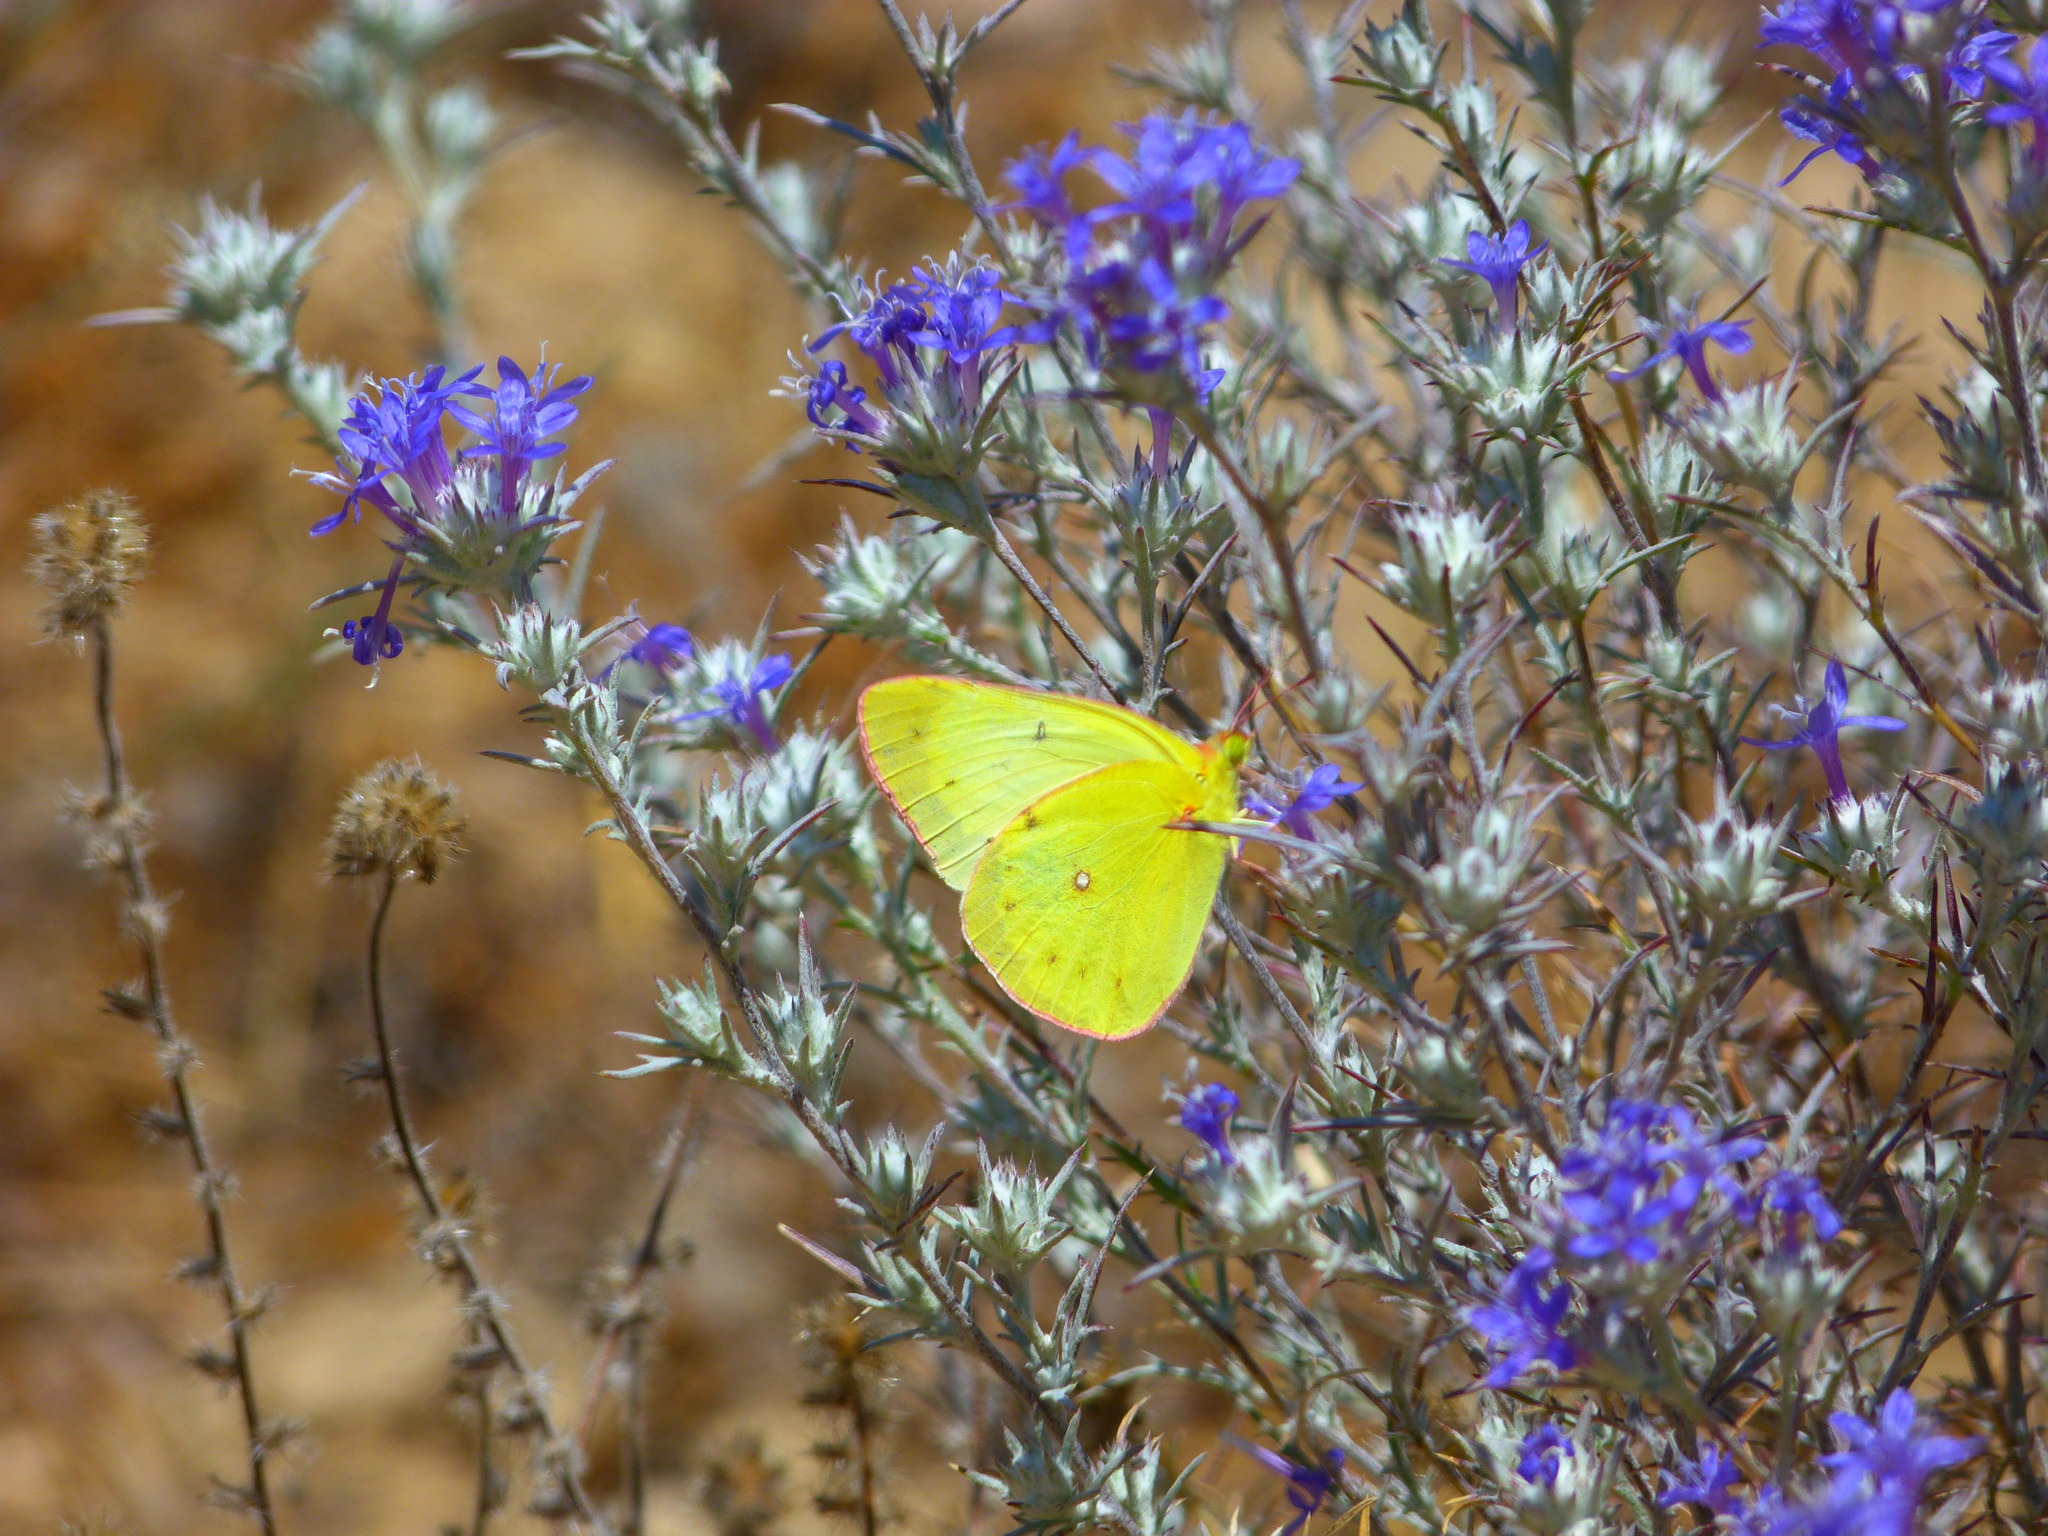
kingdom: Animalia
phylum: Arthropoda
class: Insecta
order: Lepidoptera
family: Pieridae
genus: Colias
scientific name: Colias harfordii
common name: Harford's sulphur
